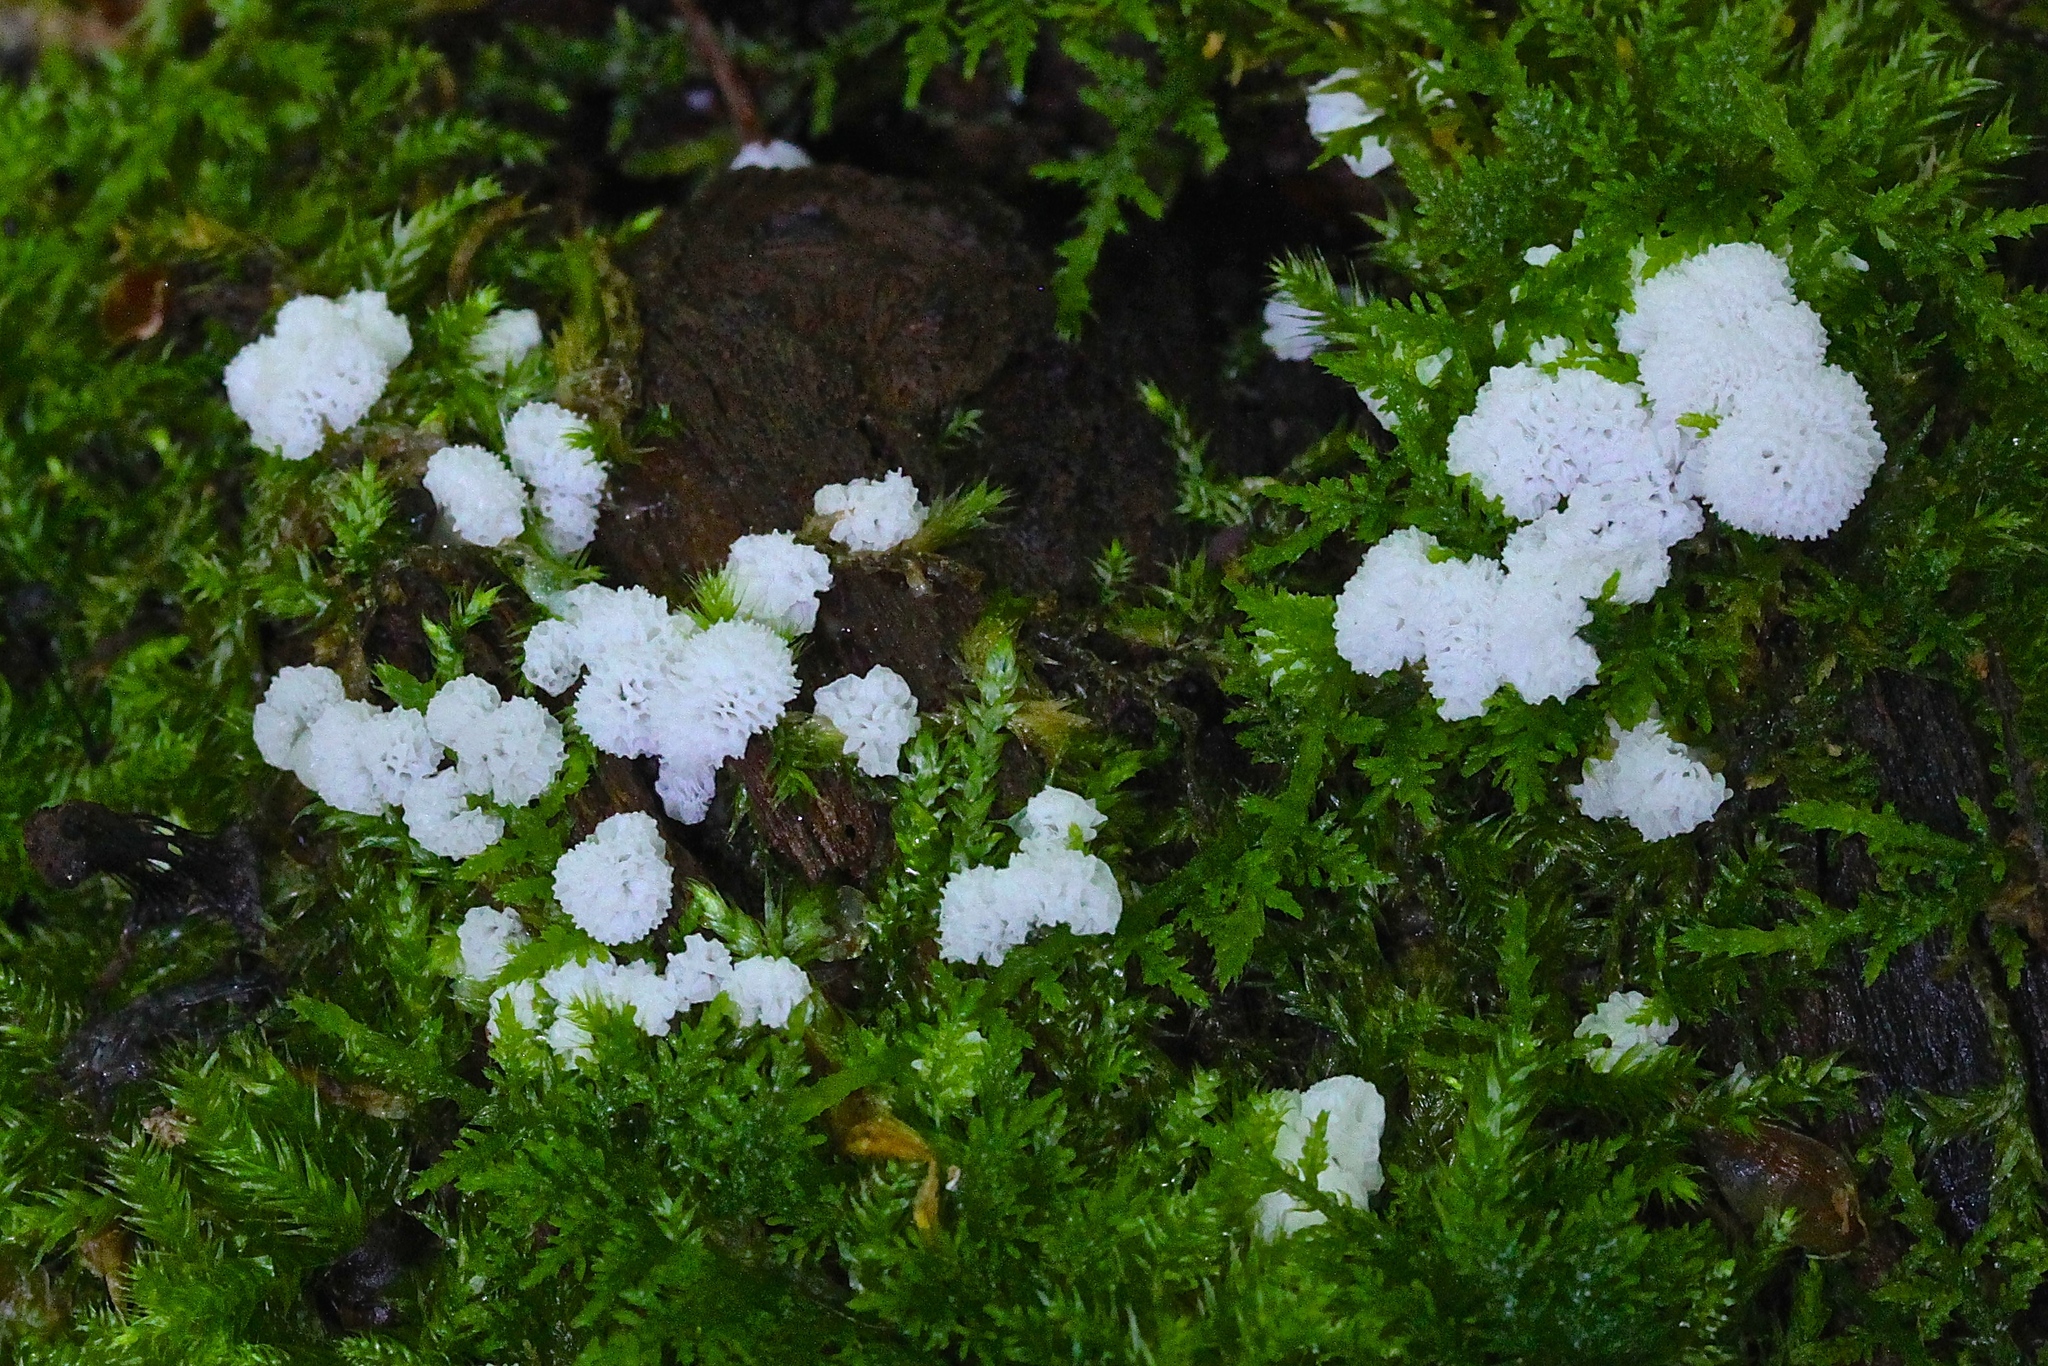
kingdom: Protozoa
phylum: Mycetozoa
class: Protosteliomycetes
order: Ceratiomyxales
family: Ceratiomyxaceae
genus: Ceratiomyxa
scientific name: Ceratiomyxa fruticulosa
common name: Honeycomb coral slime mold
